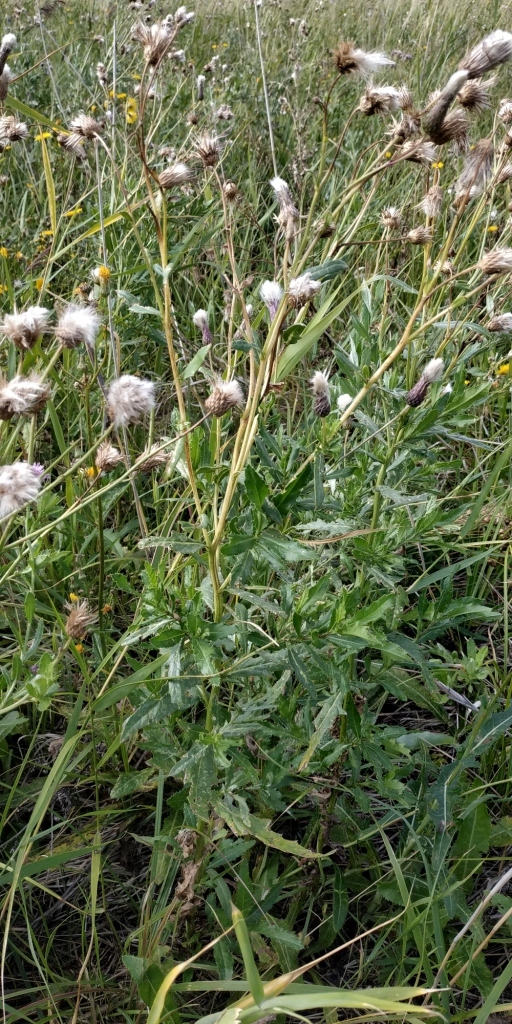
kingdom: Plantae
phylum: Tracheophyta
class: Magnoliopsida
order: Asterales
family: Asteraceae
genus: Cirsium
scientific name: Cirsium arvense
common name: Creeping thistle
